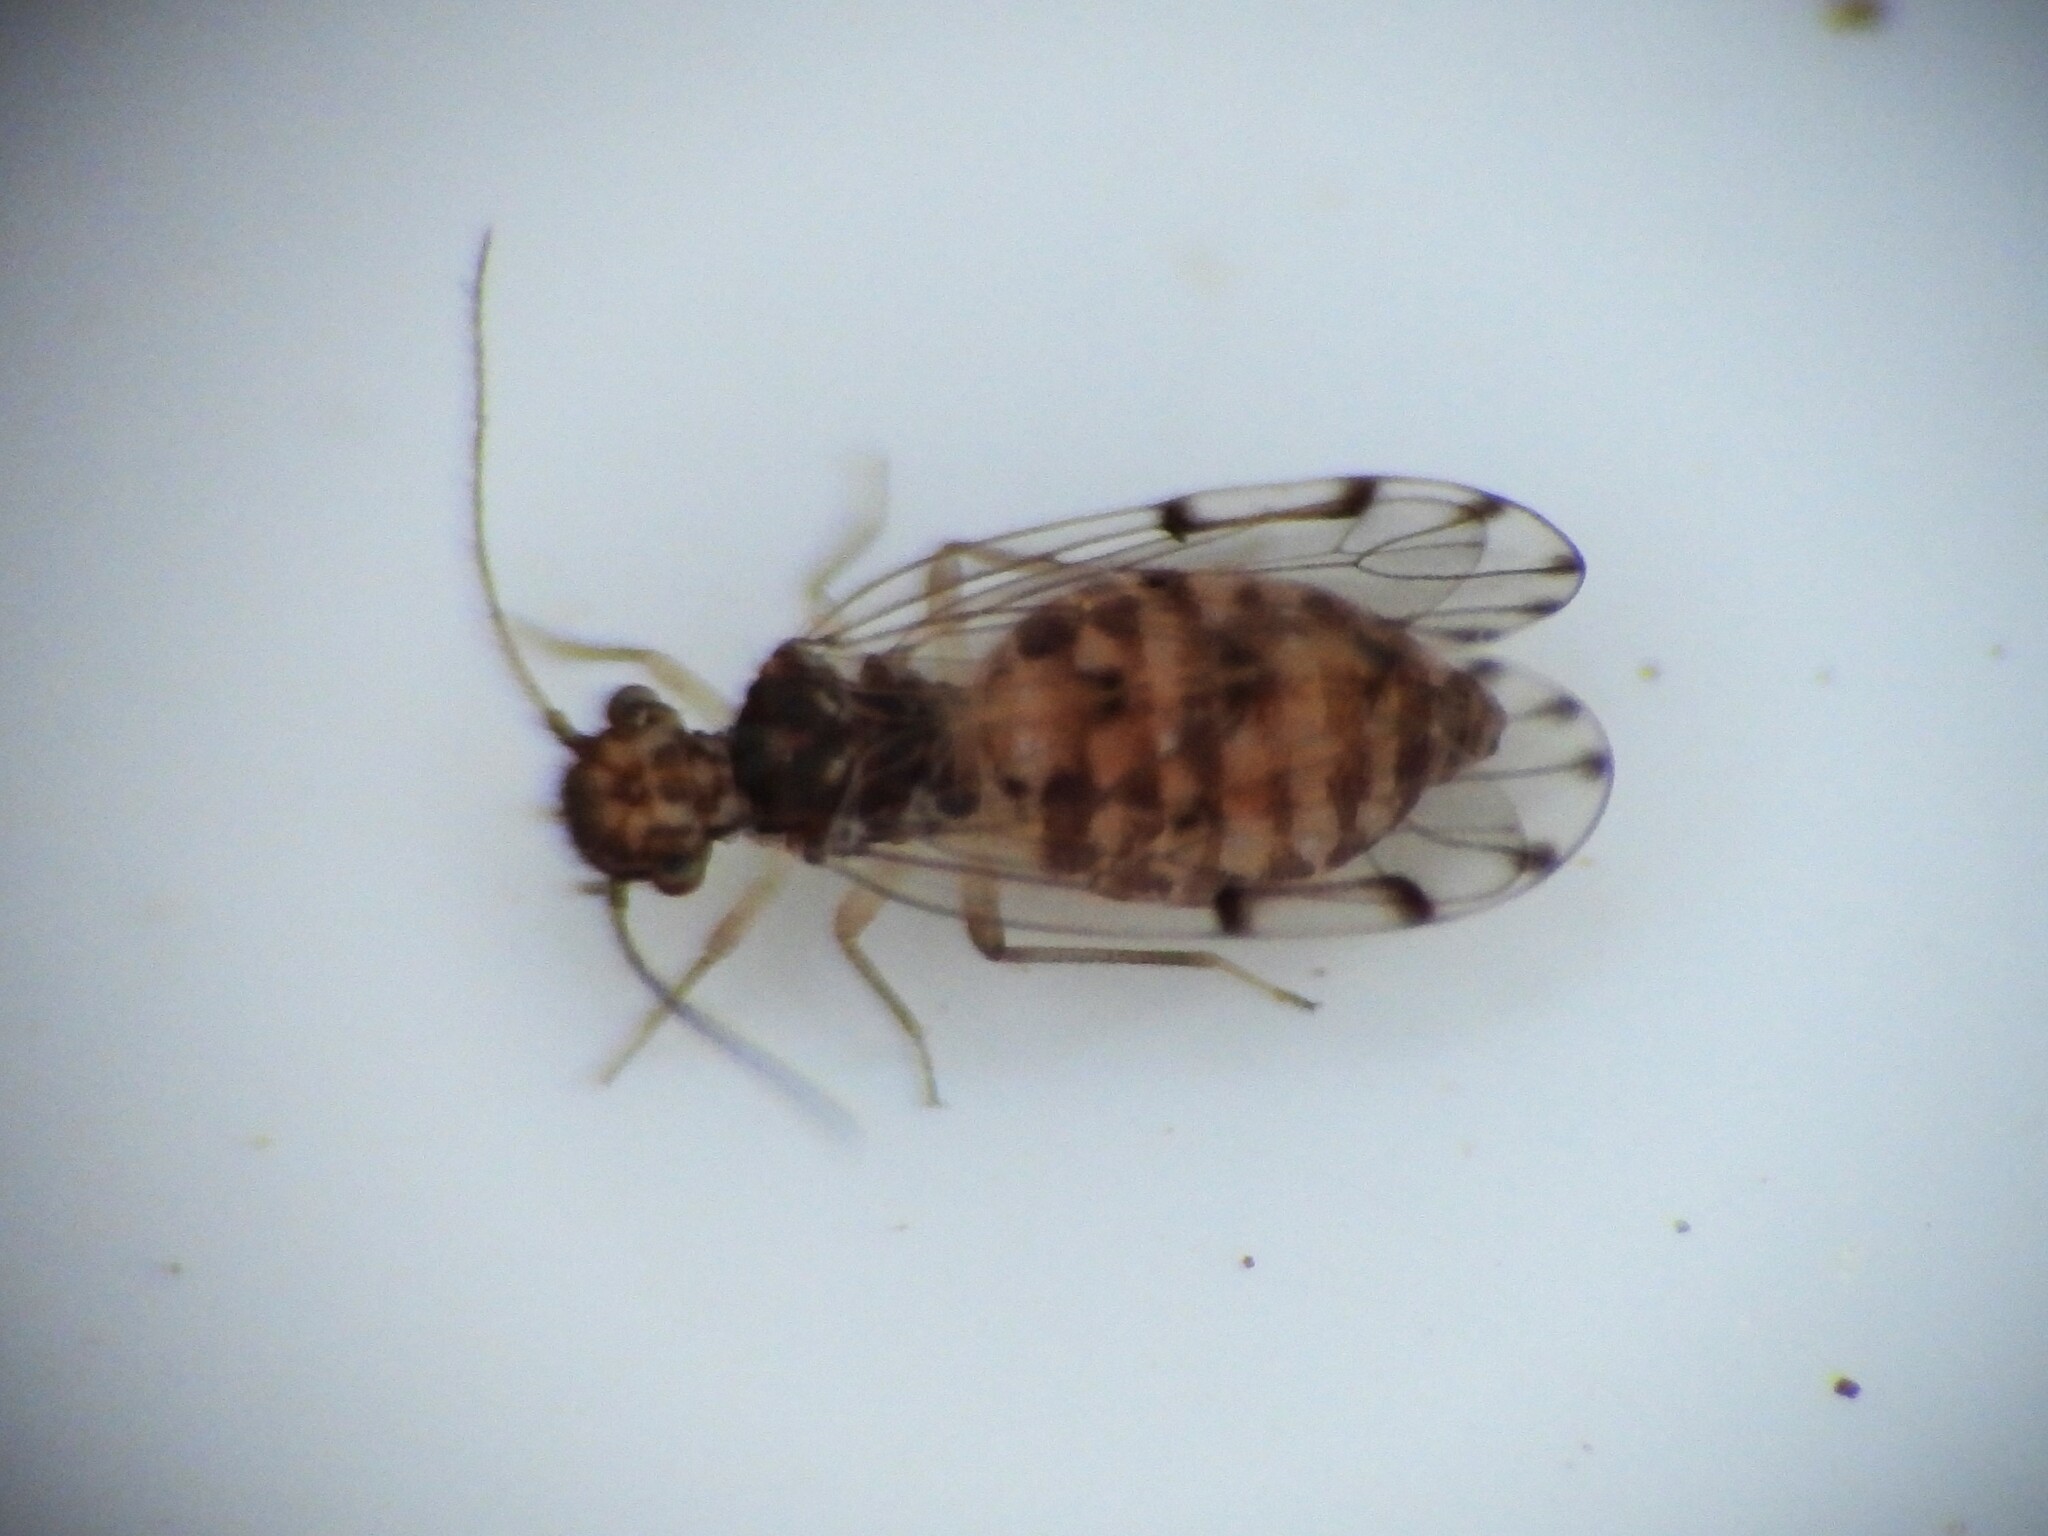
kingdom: Animalia
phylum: Arthropoda
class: Insecta
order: Psocodea
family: Ectopsocidae
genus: Ectopsocus
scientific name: Ectopsocus petersi
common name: Medium-sized bark louse
